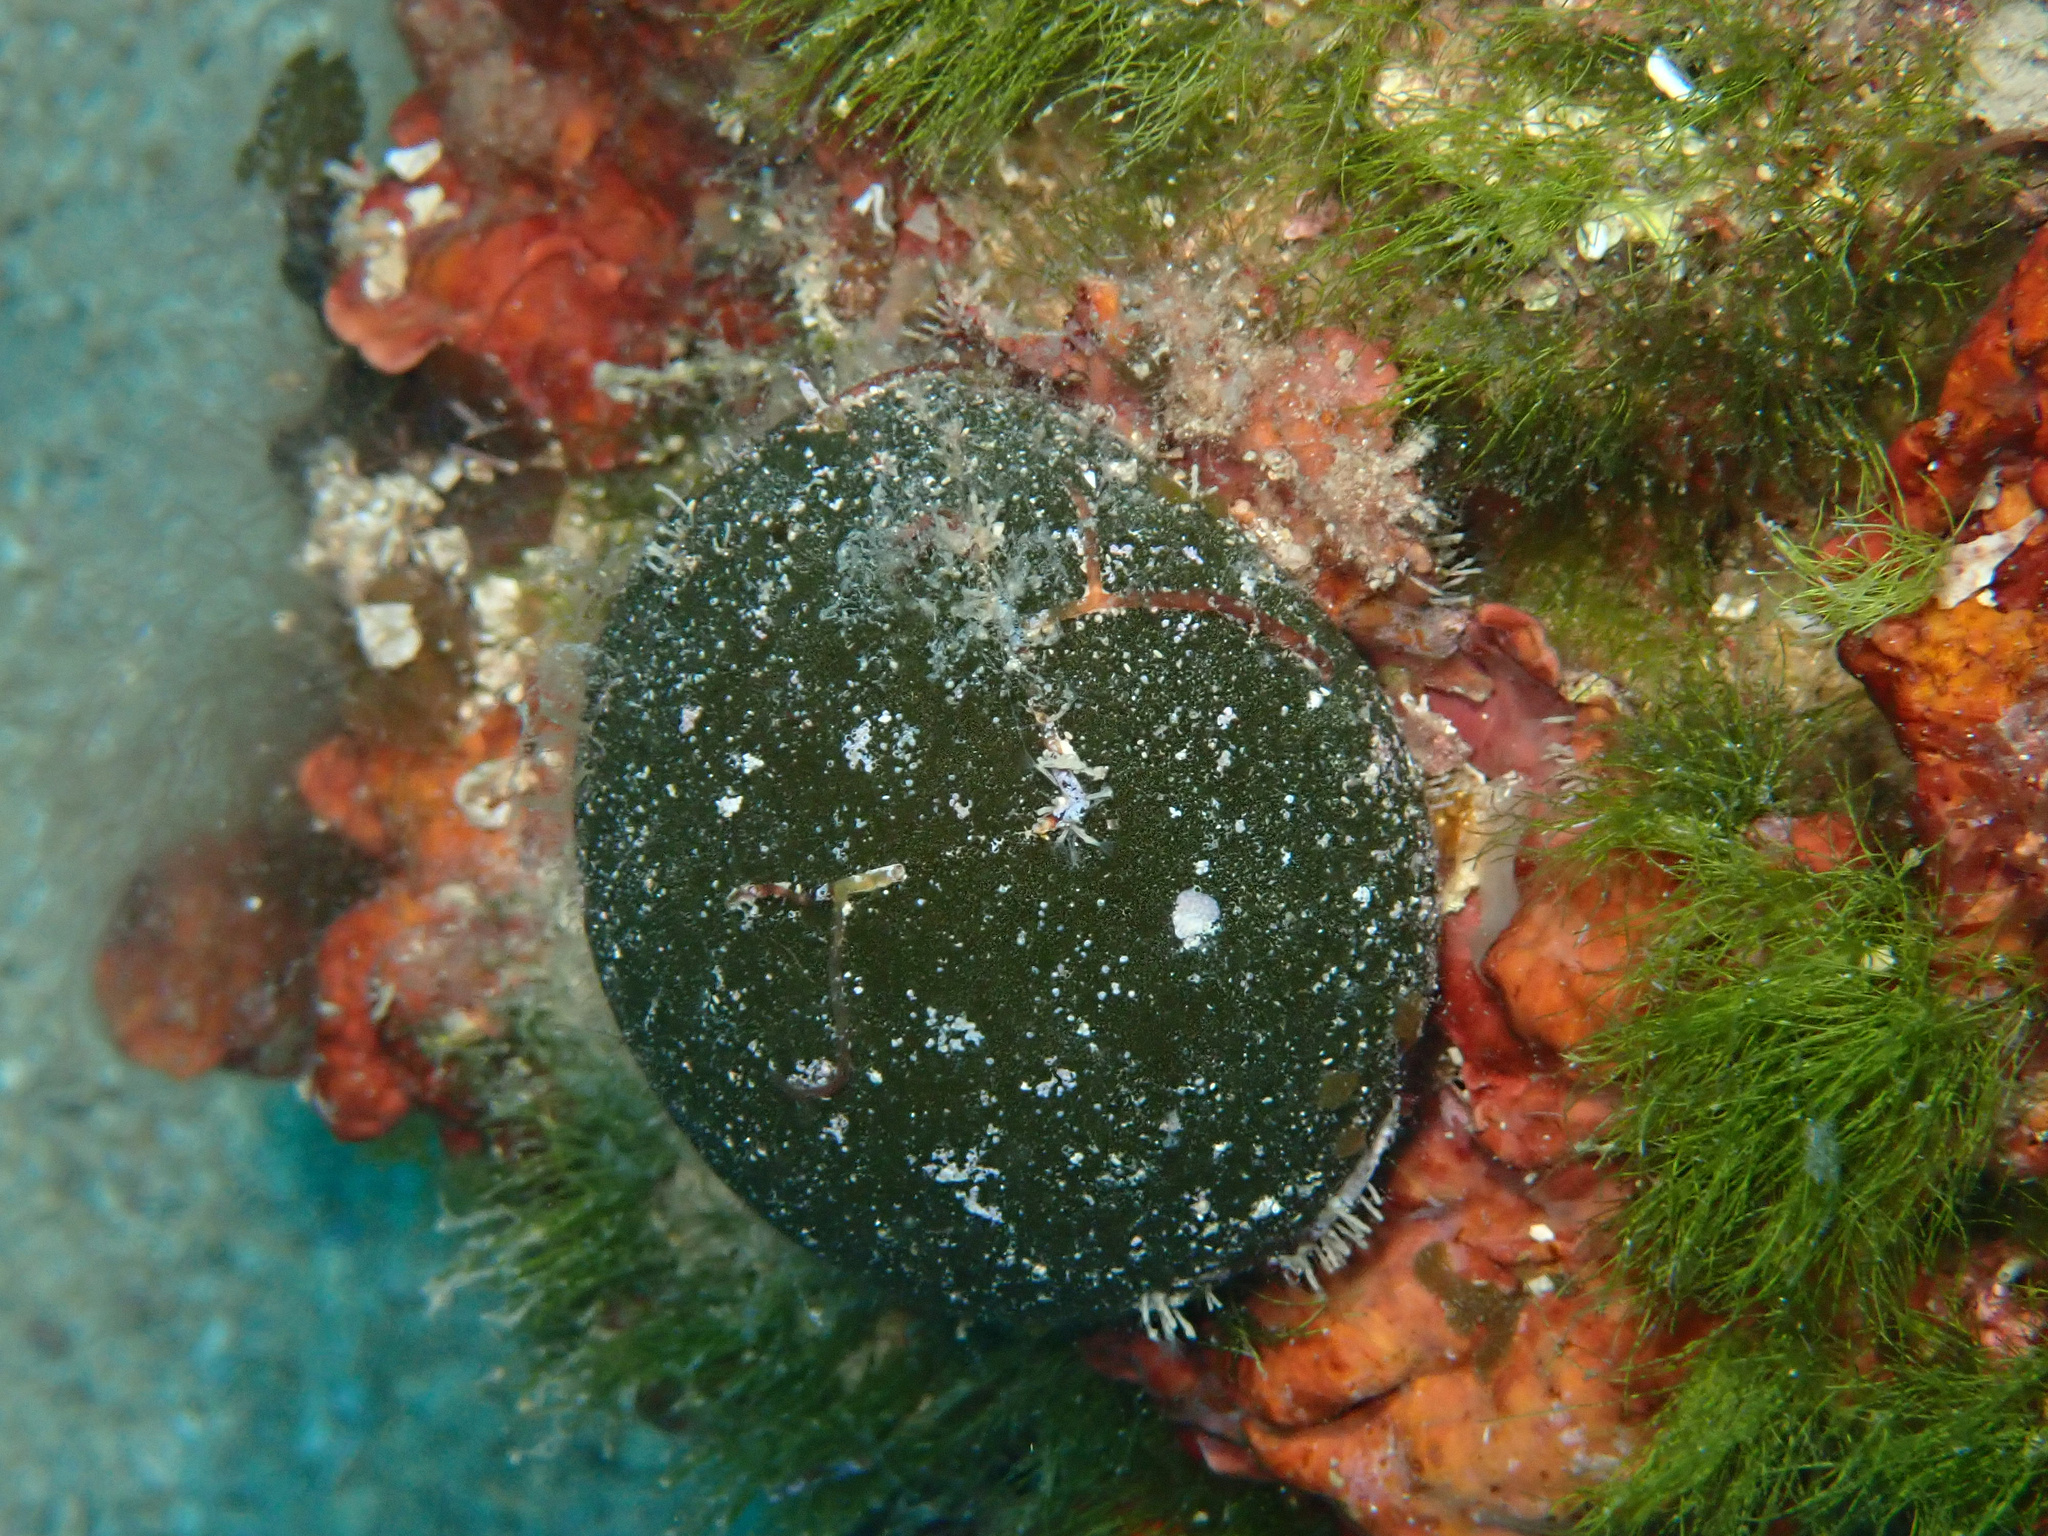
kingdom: Plantae
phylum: Chlorophyta
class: Ulvophyceae
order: Bryopsidales
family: Codiaceae
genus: Codium
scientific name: Codium bursa
